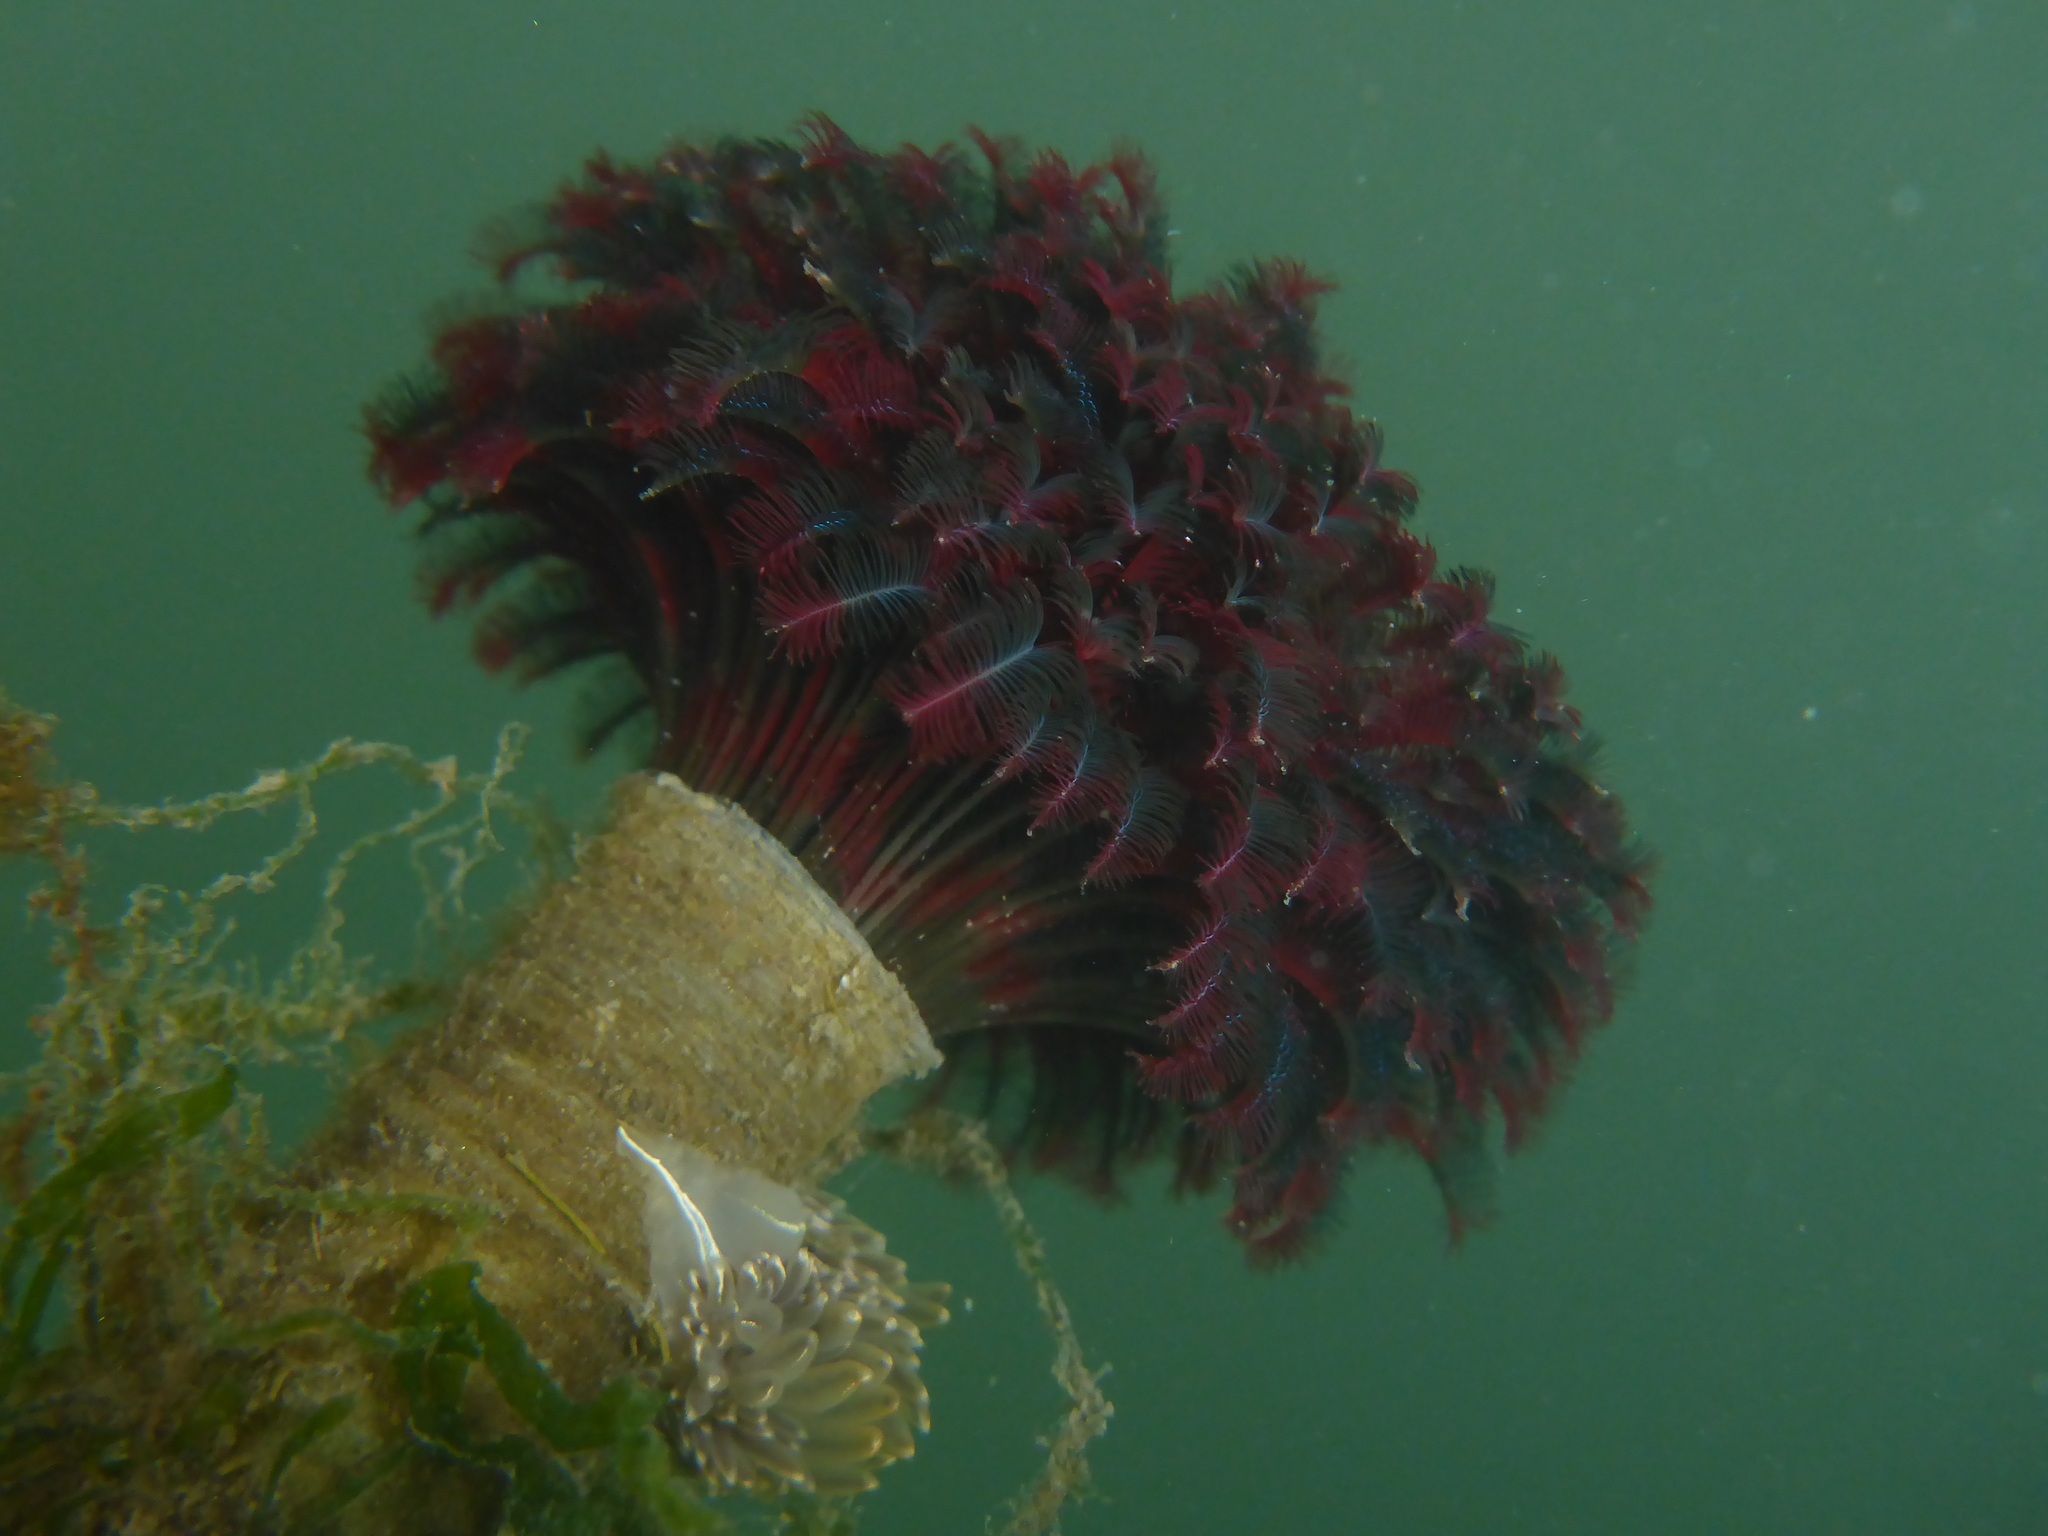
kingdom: Animalia
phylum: Annelida
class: Polychaeta
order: Sabellida
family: Sabellidae
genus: Eudistylia
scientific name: Eudistylia vancouveri
